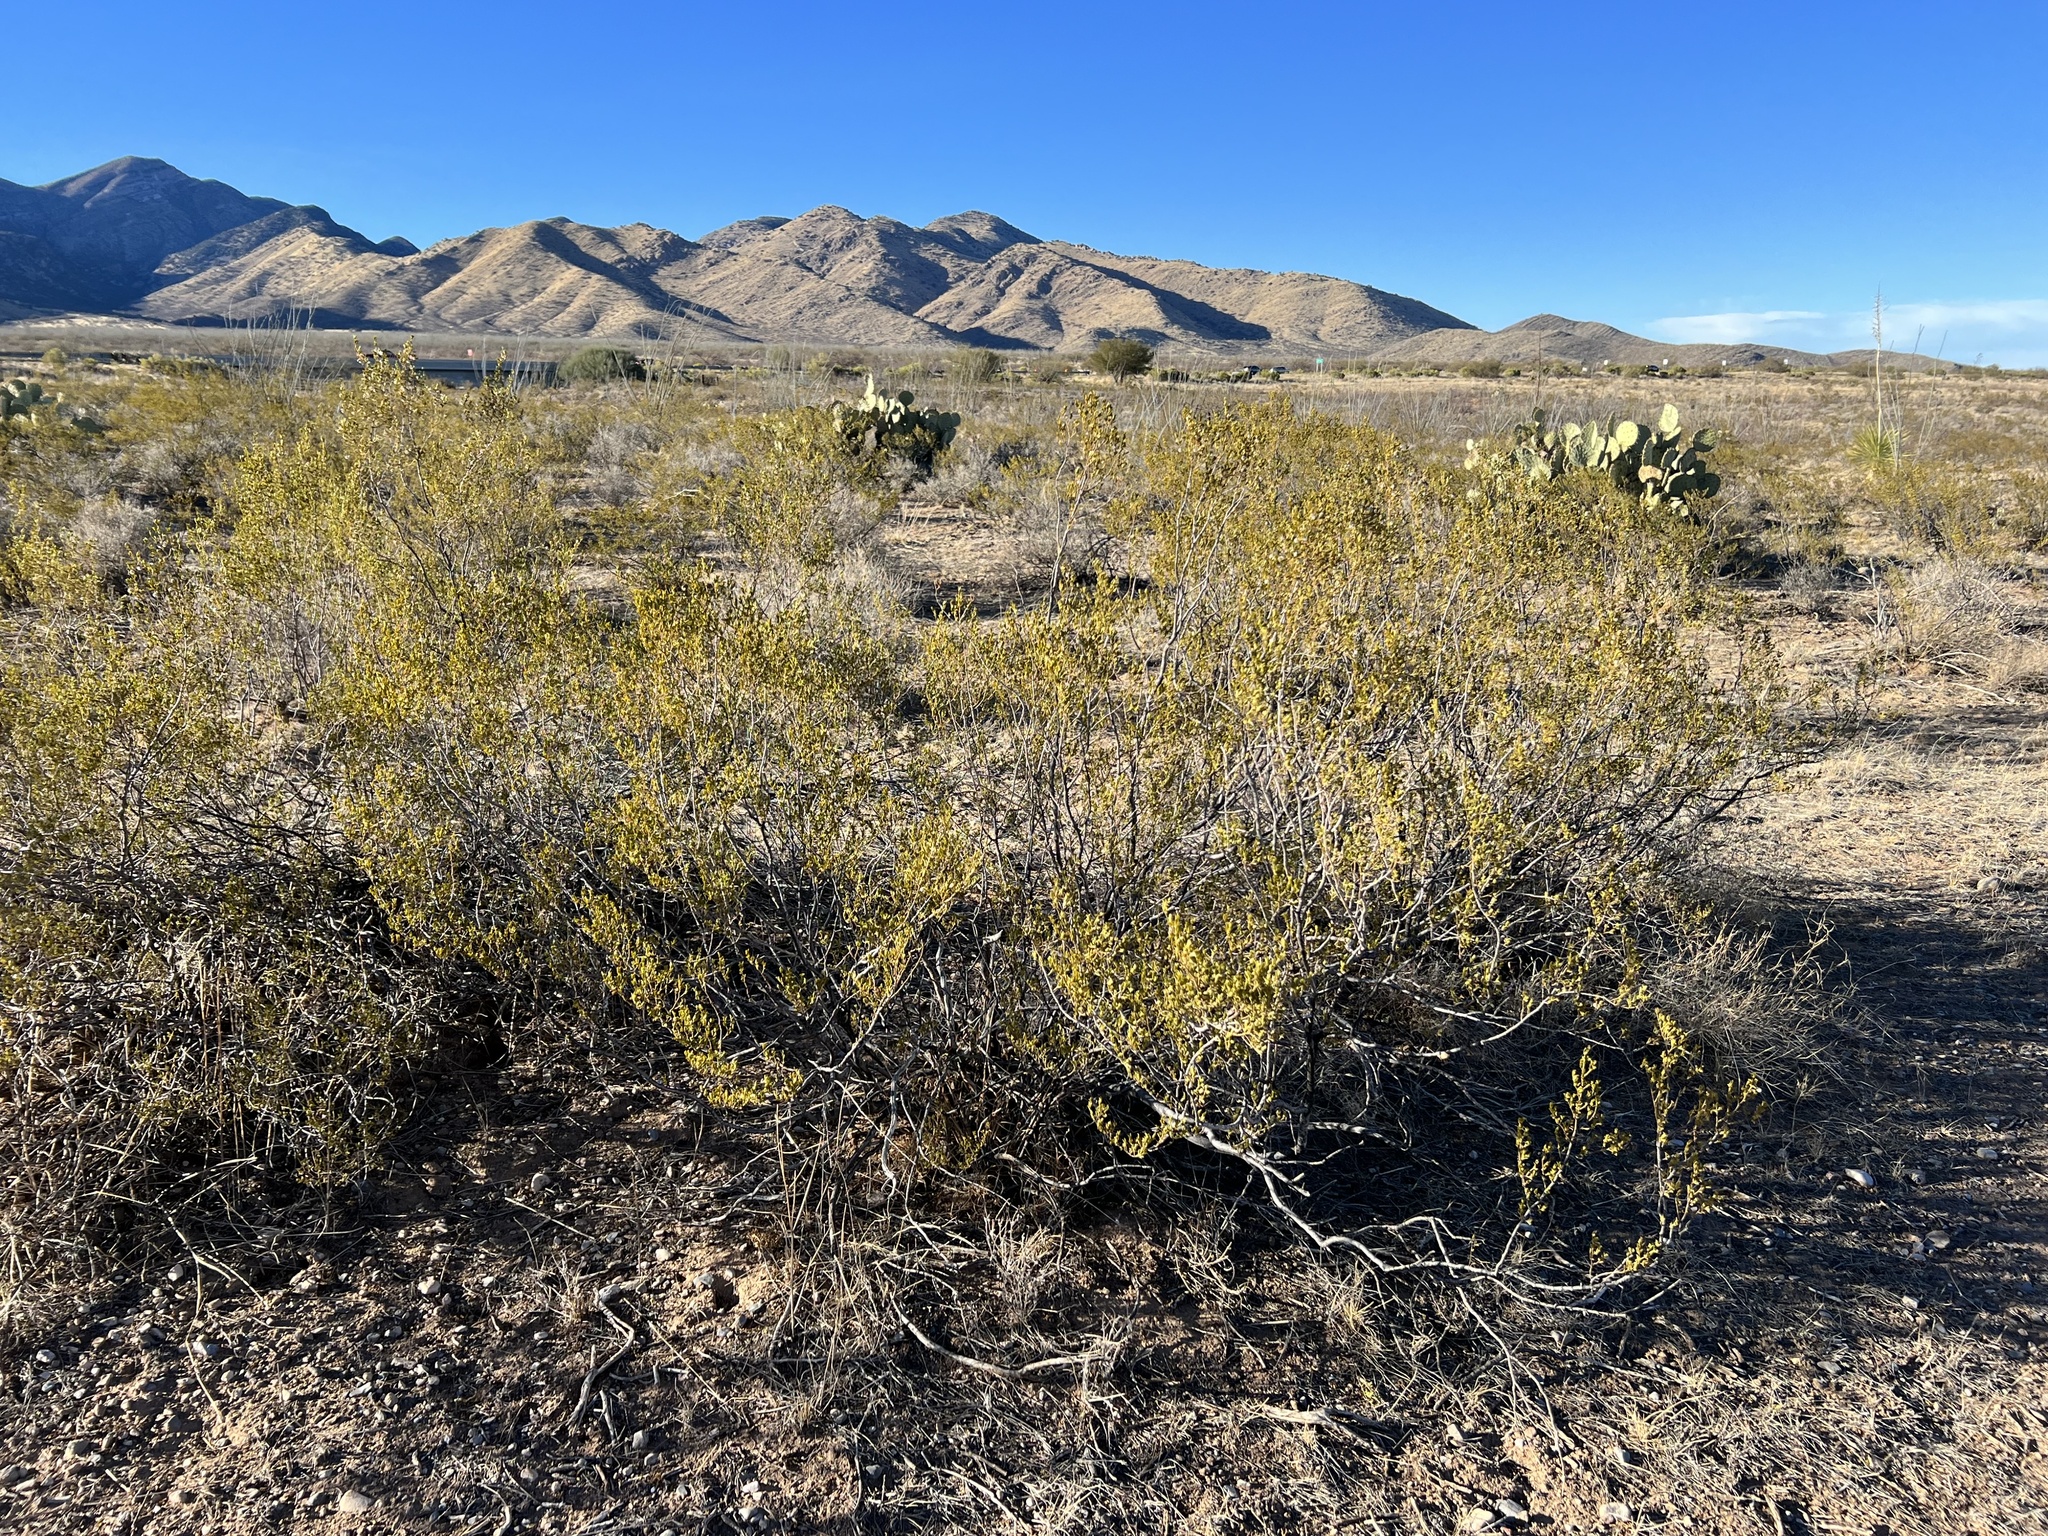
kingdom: Plantae
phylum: Tracheophyta
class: Magnoliopsida
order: Zygophyllales
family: Zygophyllaceae
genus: Larrea
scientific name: Larrea tridentata
